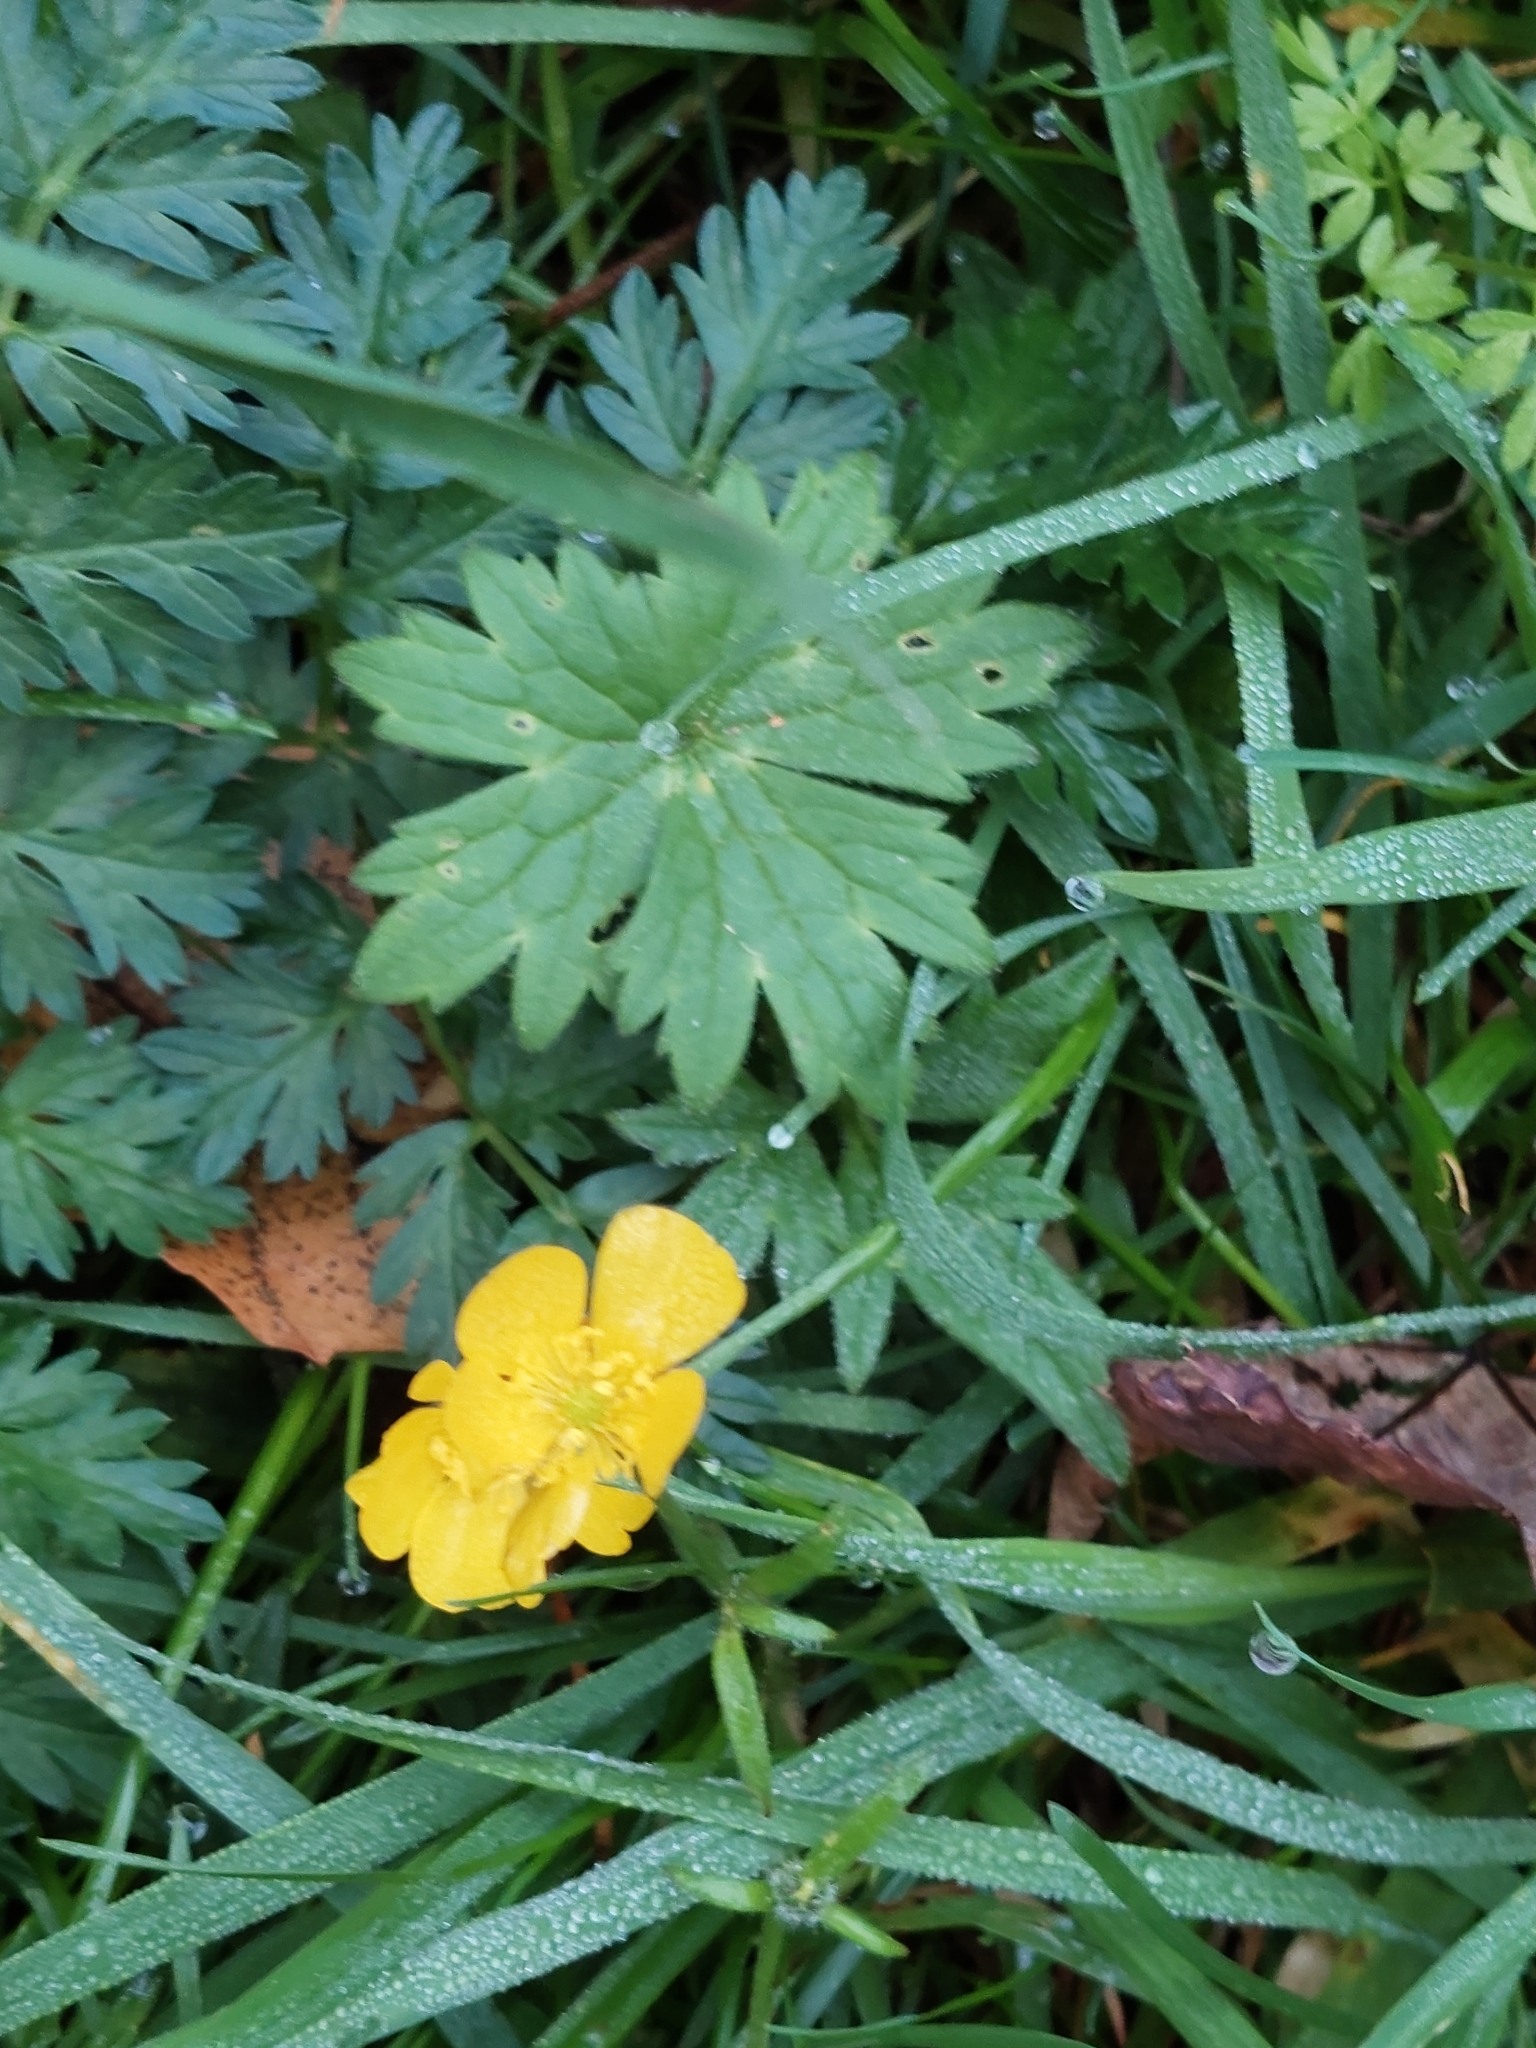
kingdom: Plantae
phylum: Tracheophyta
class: Magnoliopsida
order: Ranunculales
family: Ranunculaceae
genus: Ranunculus
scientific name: Ranunculus repens
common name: Creeping buttercup
